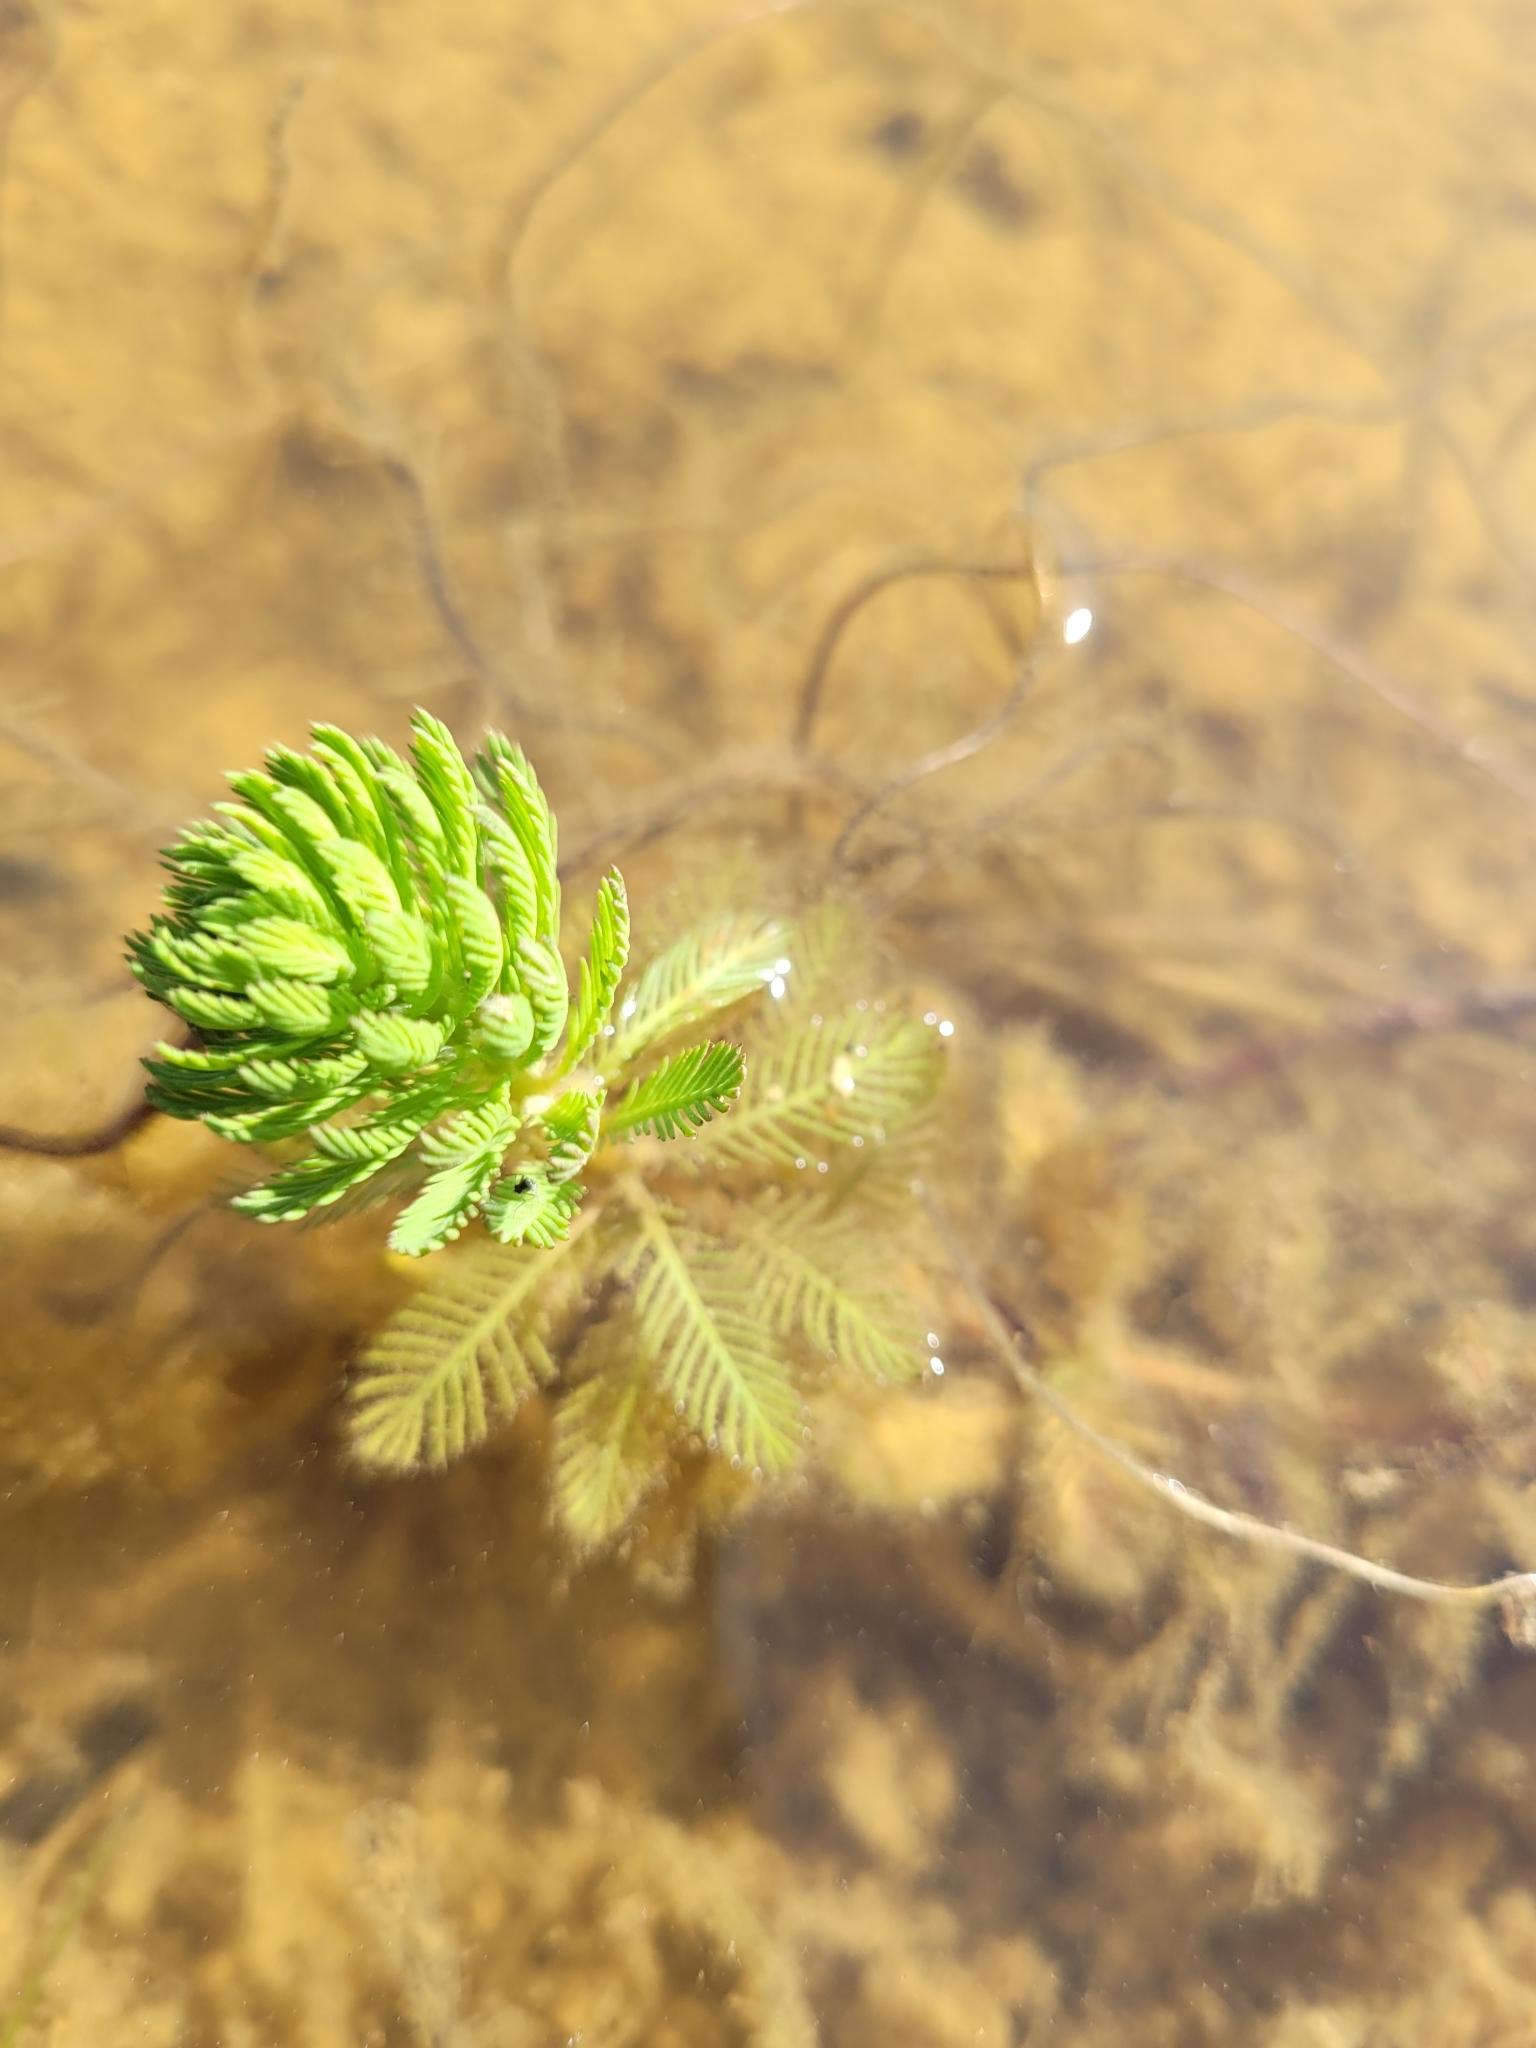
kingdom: Plantae
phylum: Tracheophyta
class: Magnoliopsida
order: Saxifragales
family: Haloragaceae
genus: Myriophyllum
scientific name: Myriophyllum aquaticum
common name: Parrot's feather
